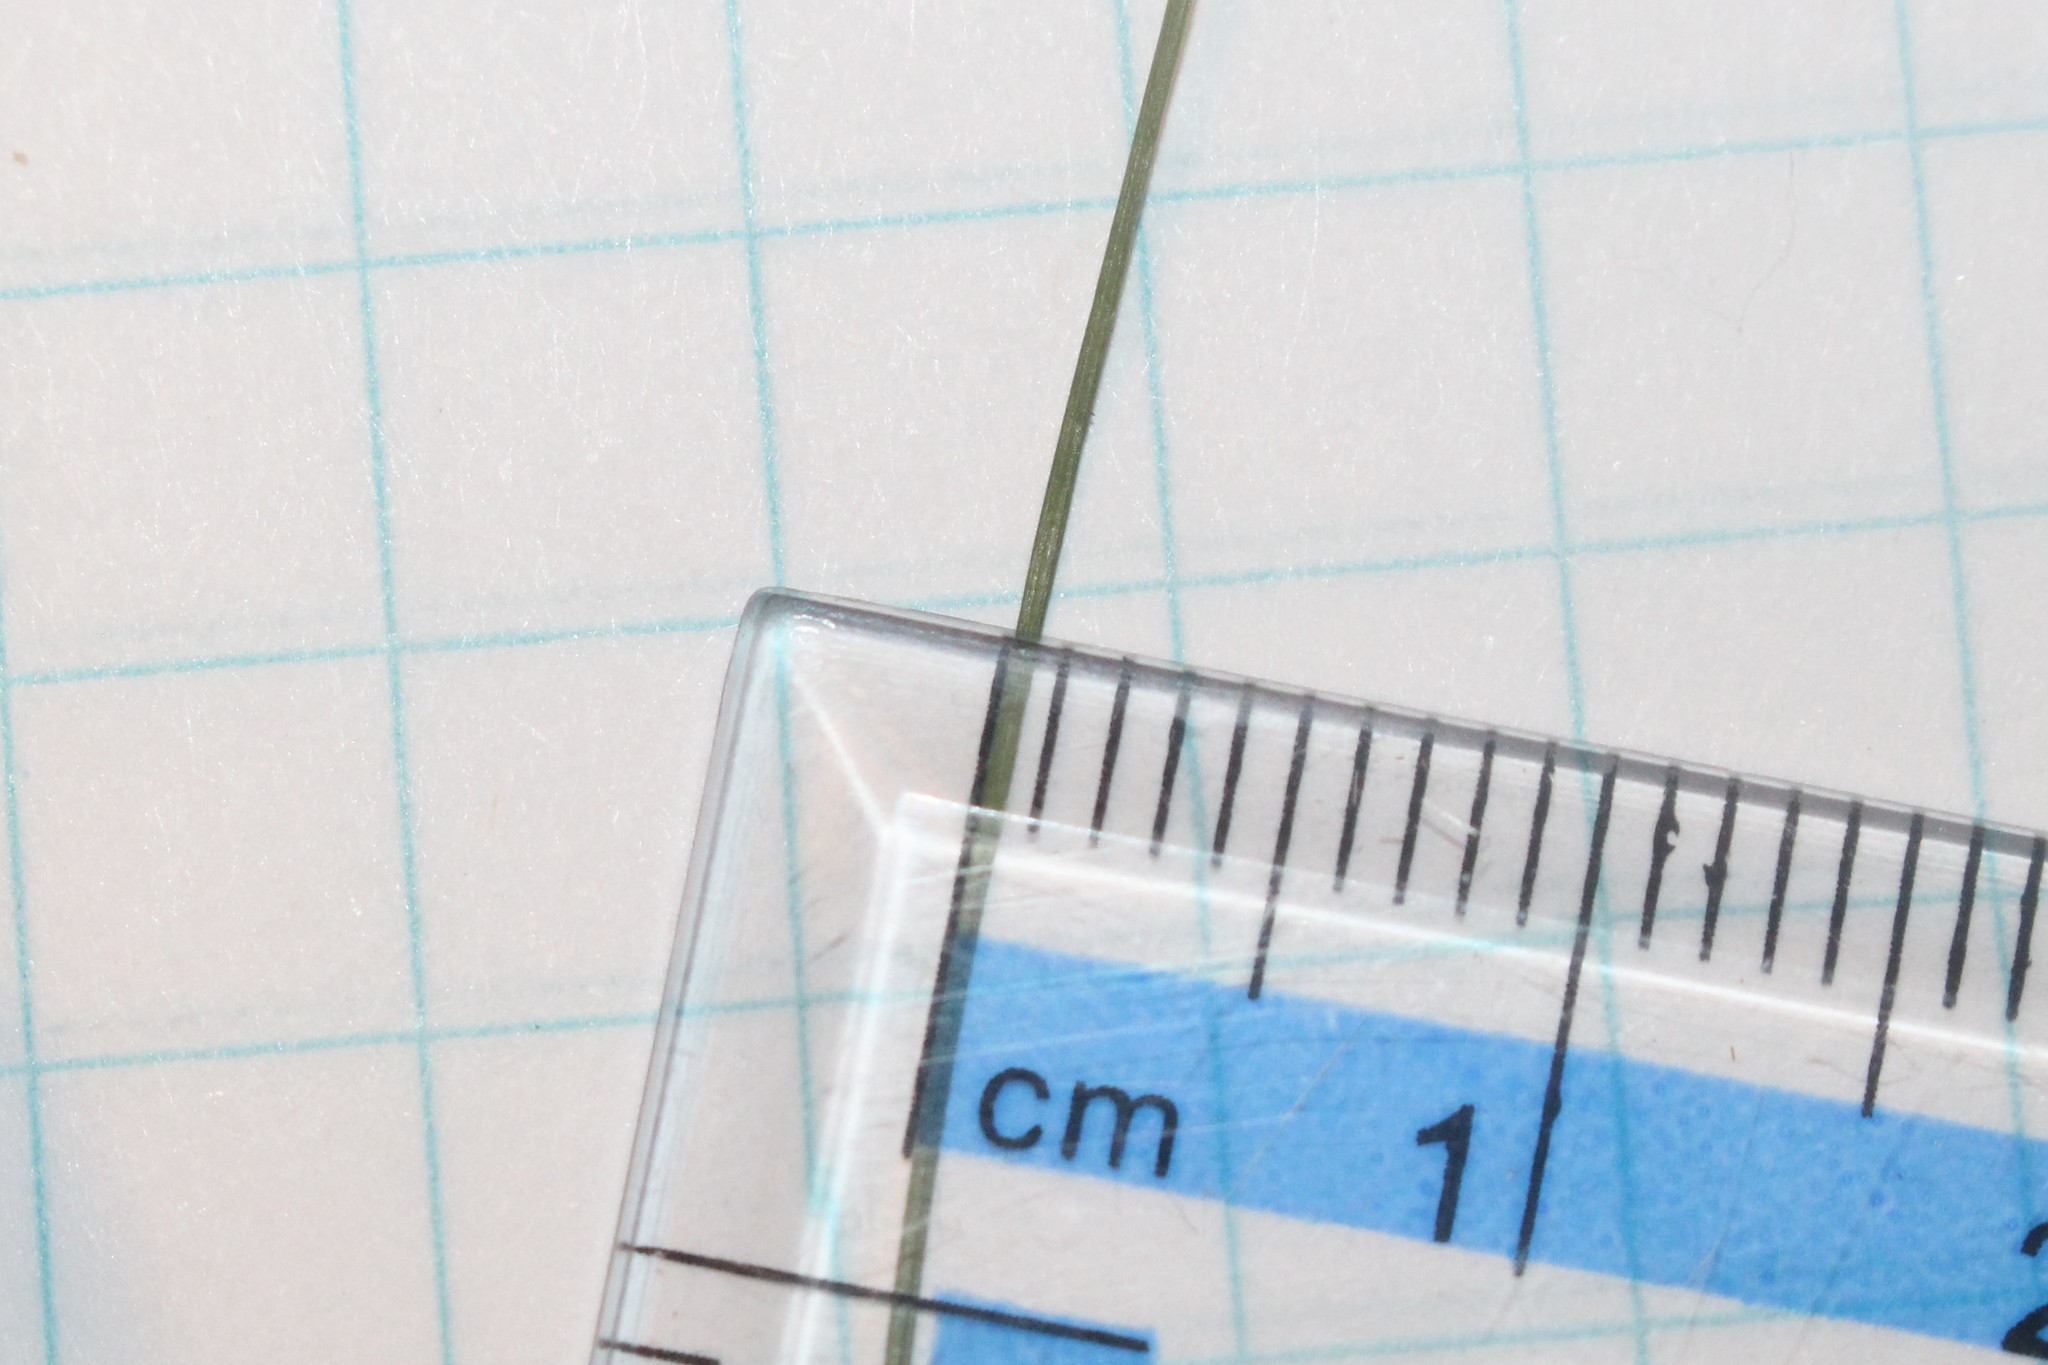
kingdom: Plantae
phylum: Tracheophyta
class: Liliopsida
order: Poales
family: Cyperaceae
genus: Carex
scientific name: Carex trisperma
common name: Three-seeded sedge
